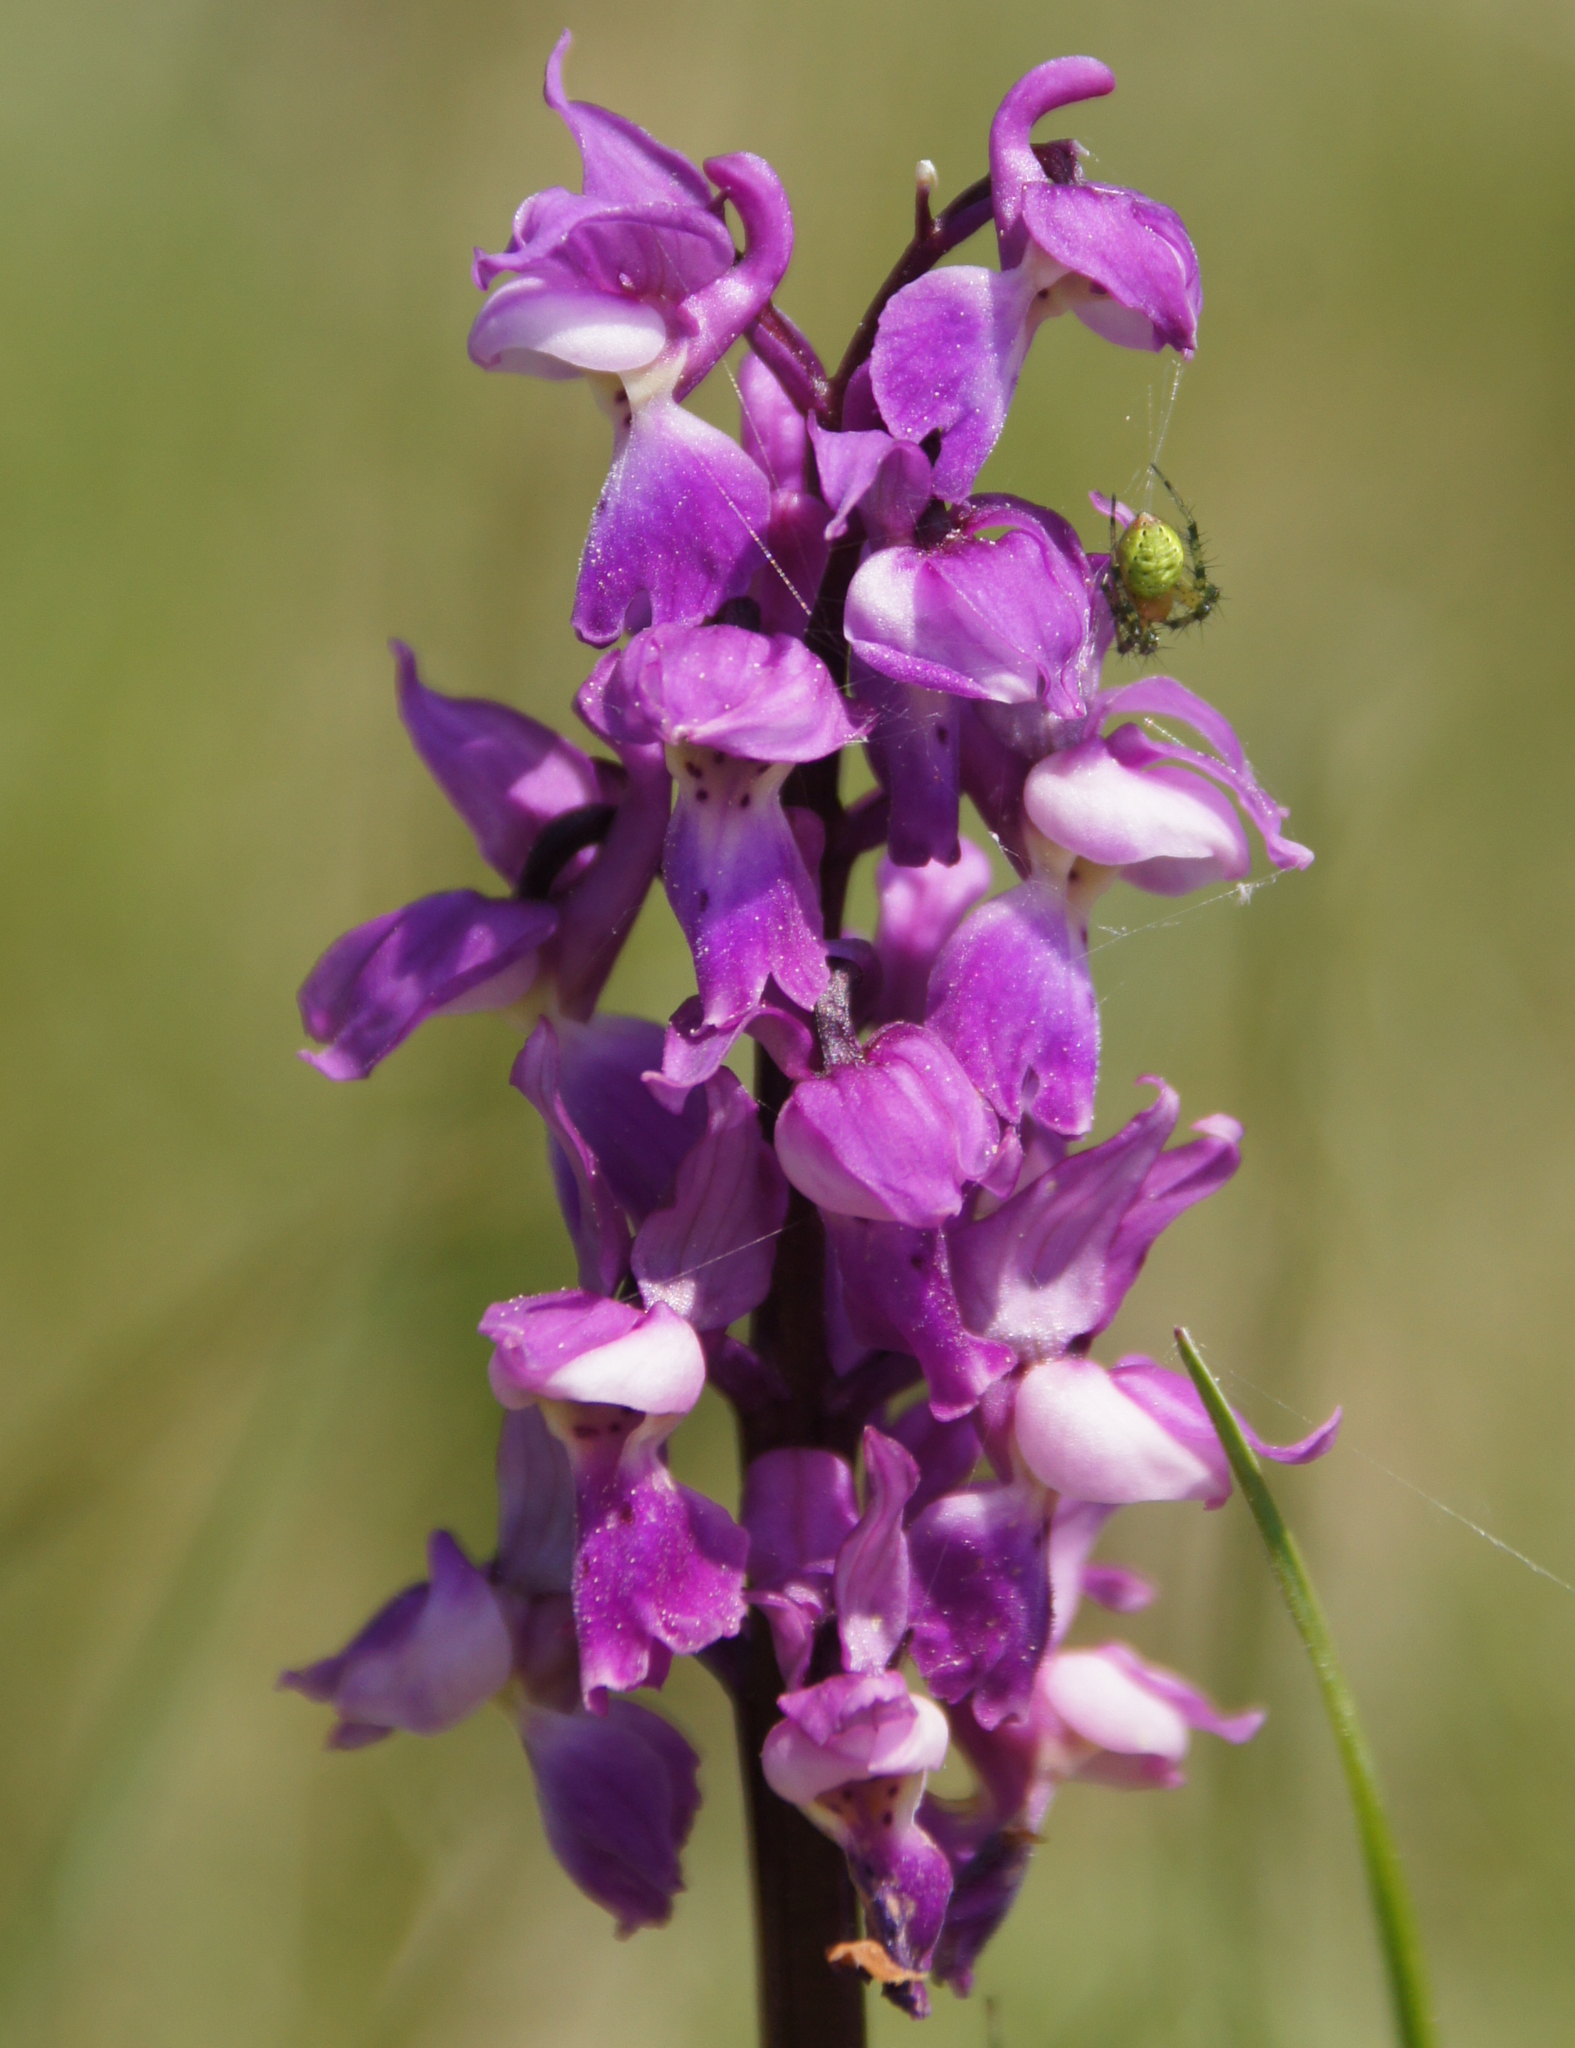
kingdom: Plantae
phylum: Tracheophyta
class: Liliopsida
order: Asparagales
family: Orchidaceae
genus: Orchis
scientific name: Orchis mascula
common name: Early-purple orchid
